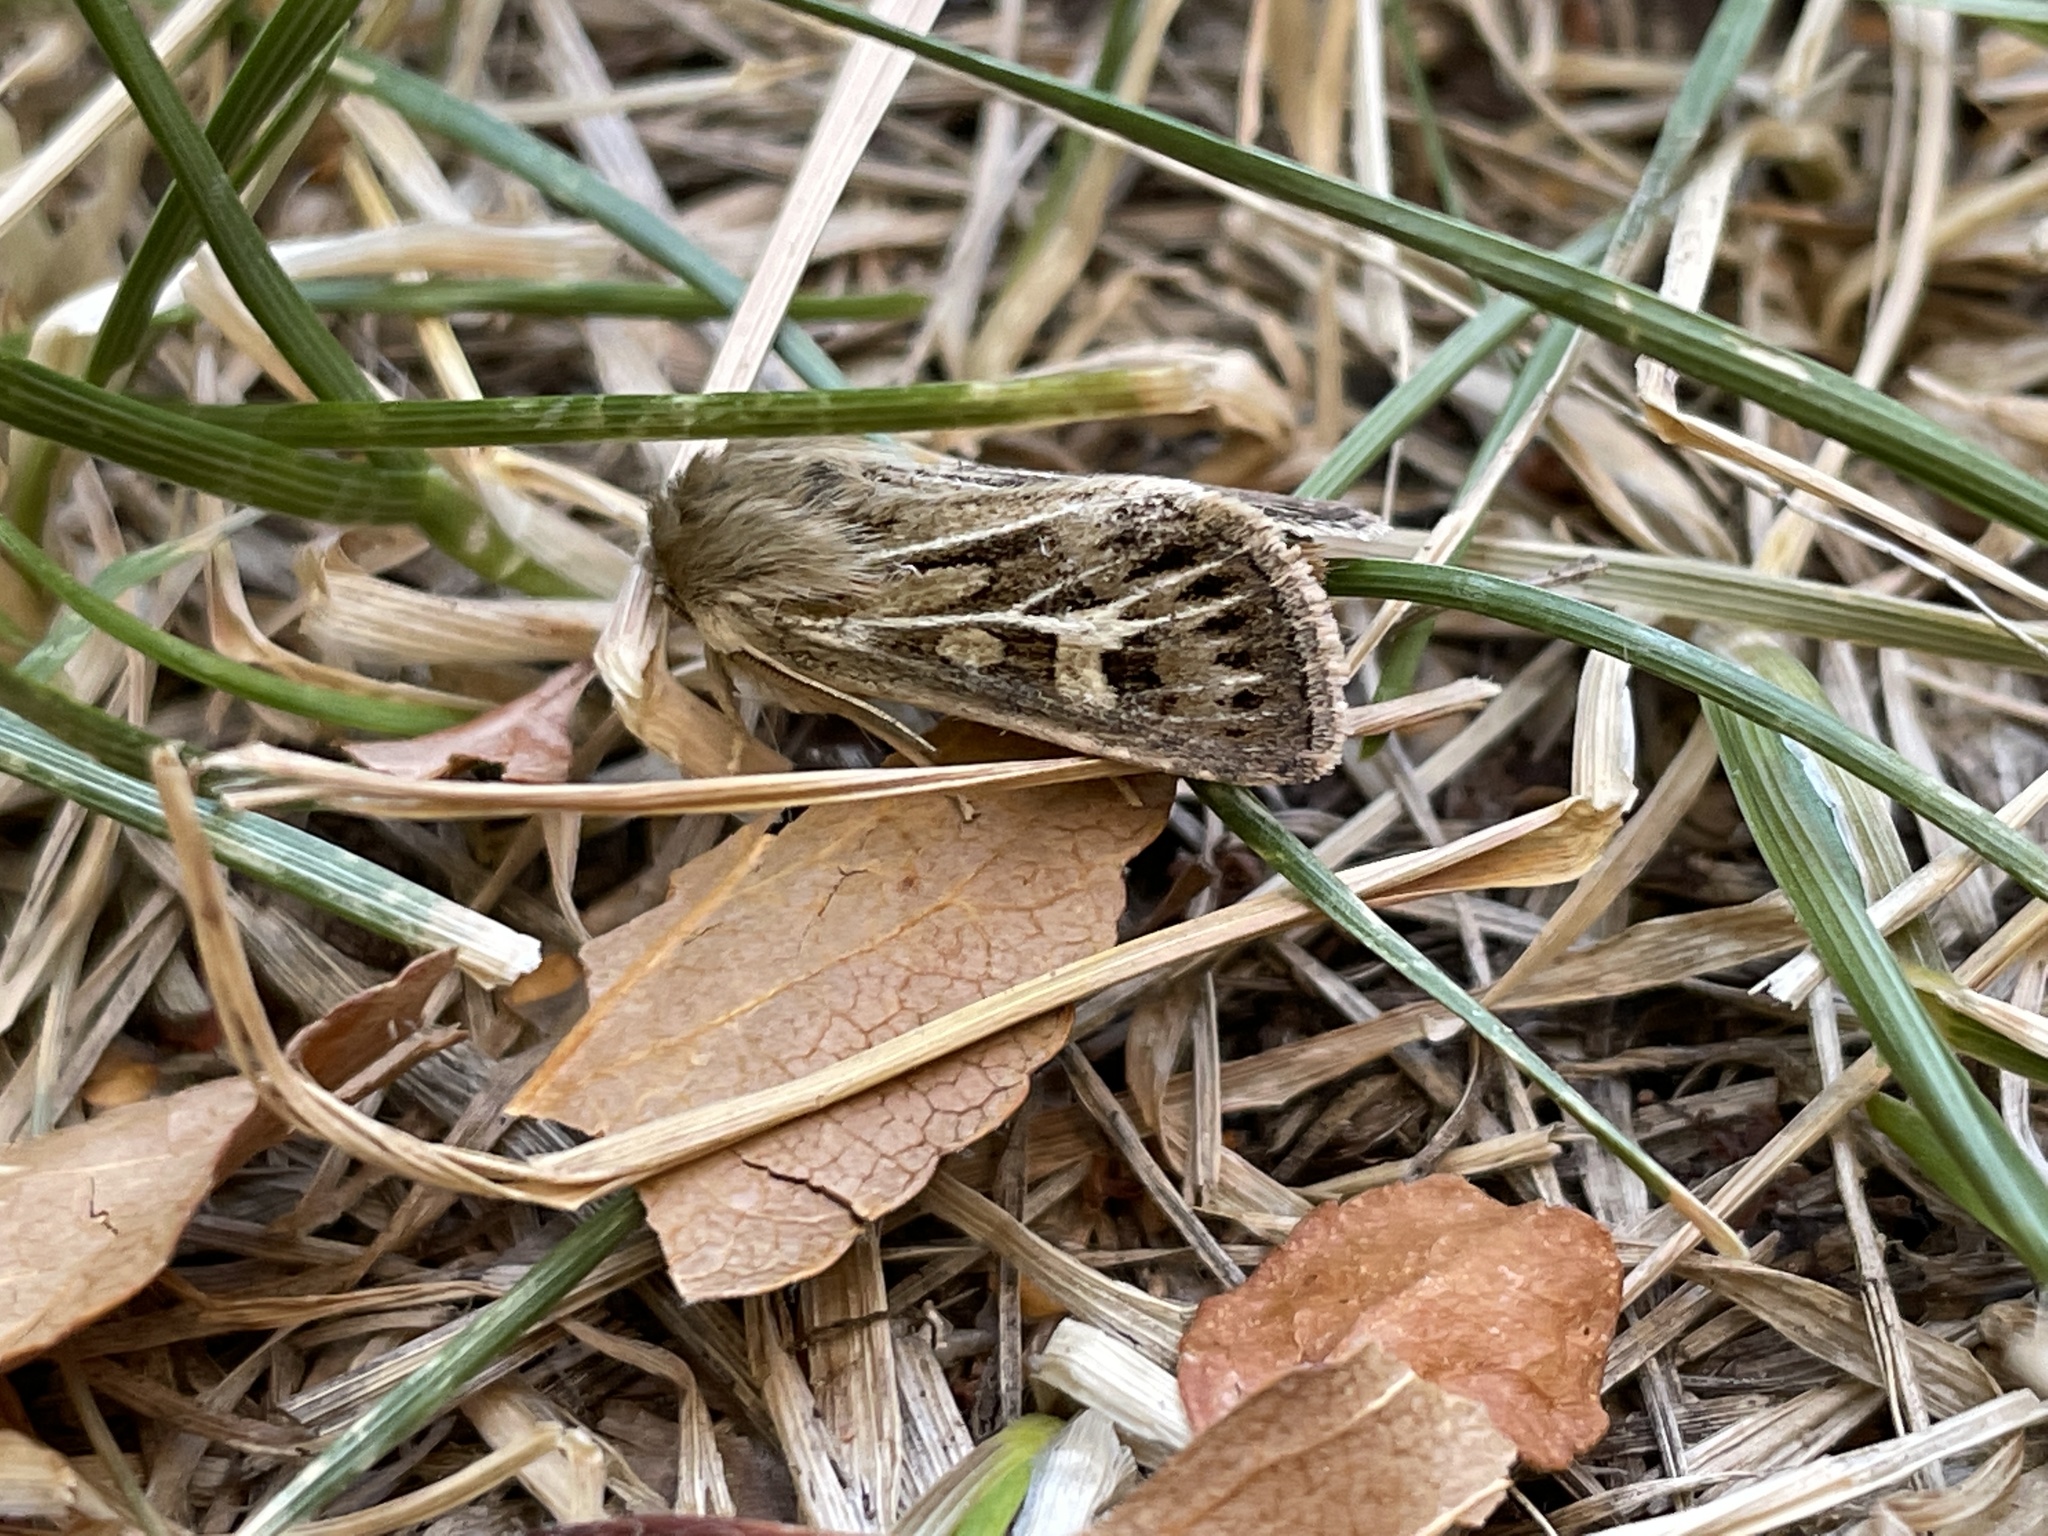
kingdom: Animalia
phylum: Arthropoda
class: Insecta
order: Lepidoptera
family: Noctuidae
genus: Cerapteryx
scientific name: Cerapteryx graminis
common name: Antler moth
